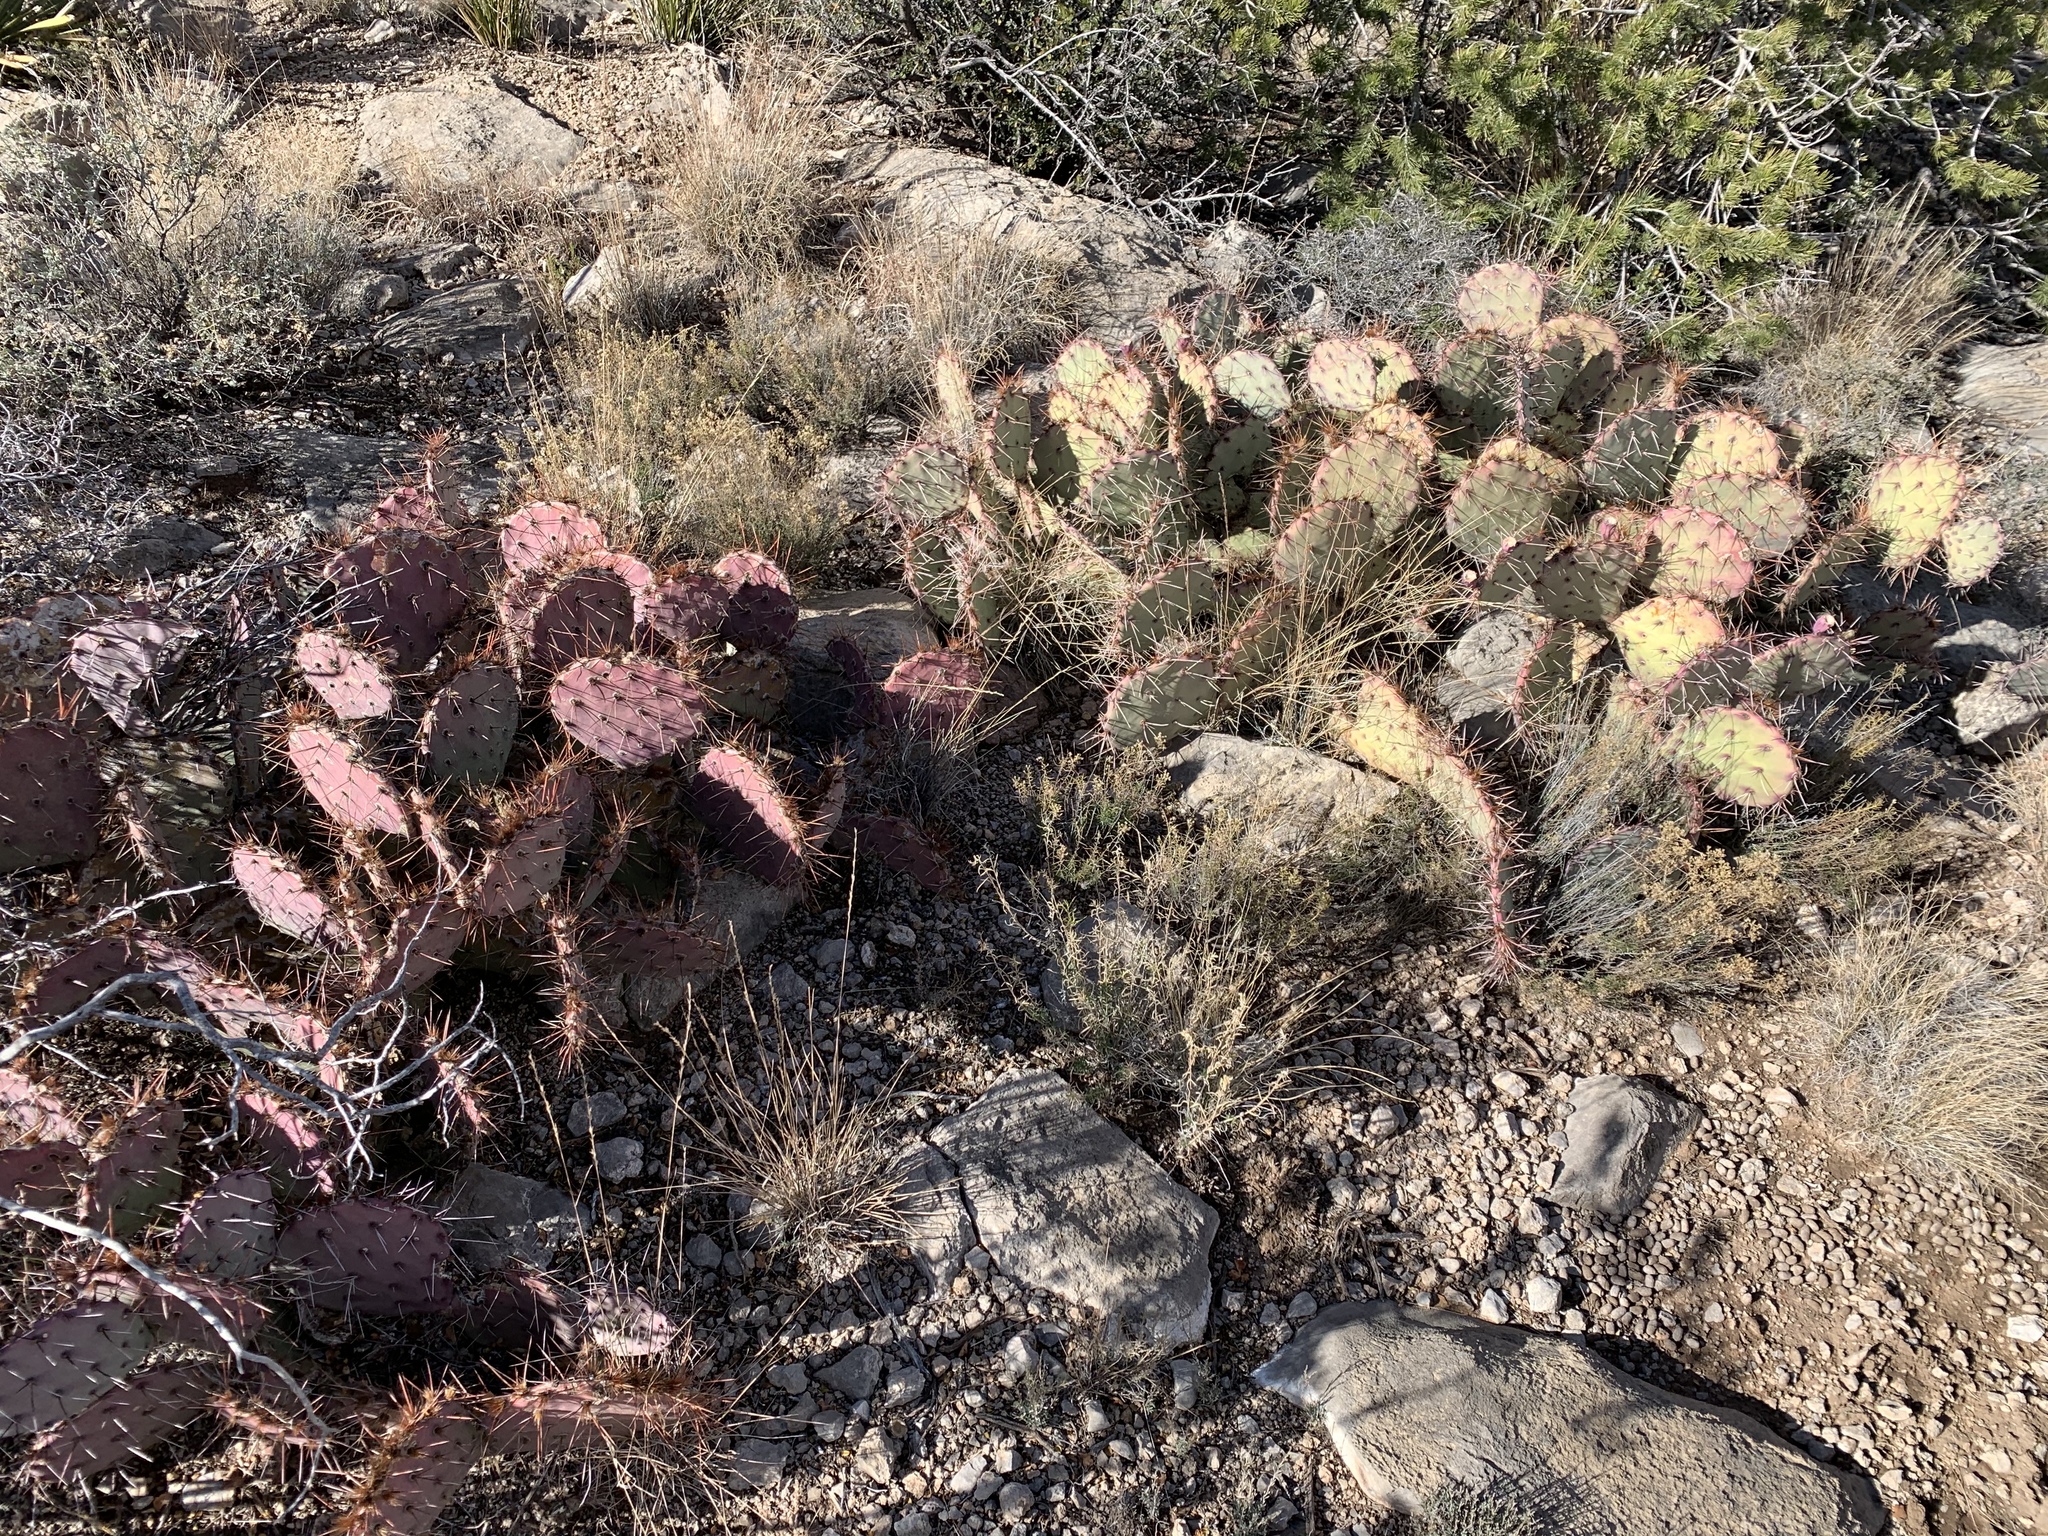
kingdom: Plantae
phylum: Tracheophyta
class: Magnoliopsida
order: Caryophyllales
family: Cactaceae
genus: Opuntia
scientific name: Opuntia macrocentra
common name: Purple prickly-pear
